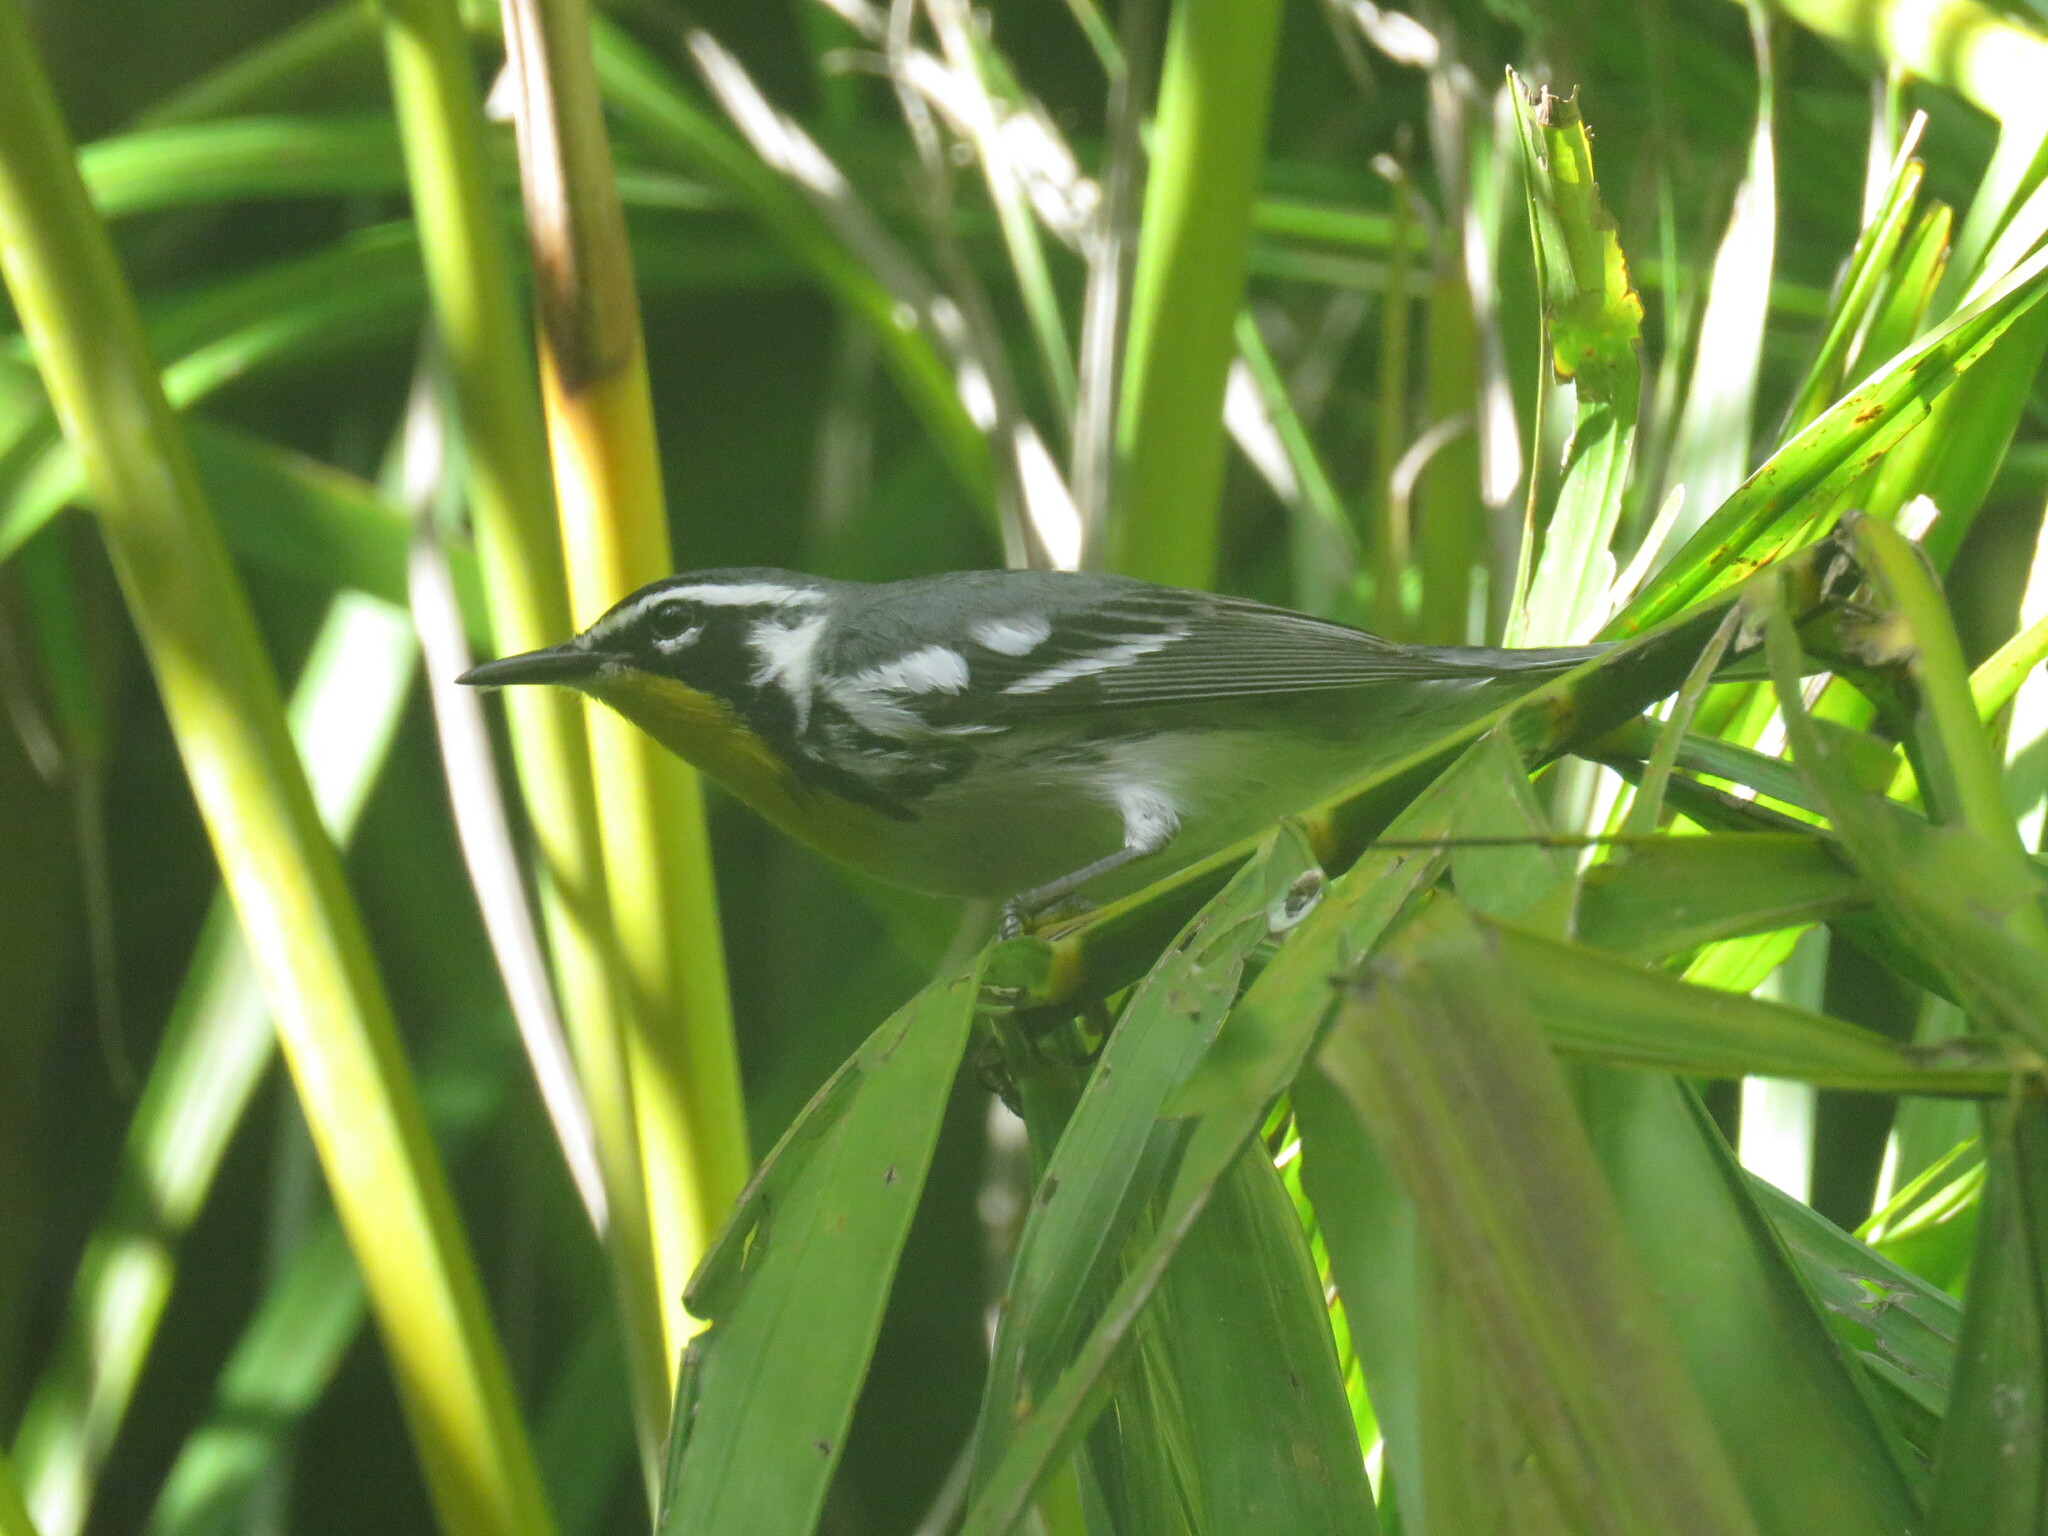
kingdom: Animalia
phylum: Chordata
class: Aves
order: Passeriformes
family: Parulidae
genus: Setophaga
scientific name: Setophaga dominica
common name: Yellow-throated warbler
